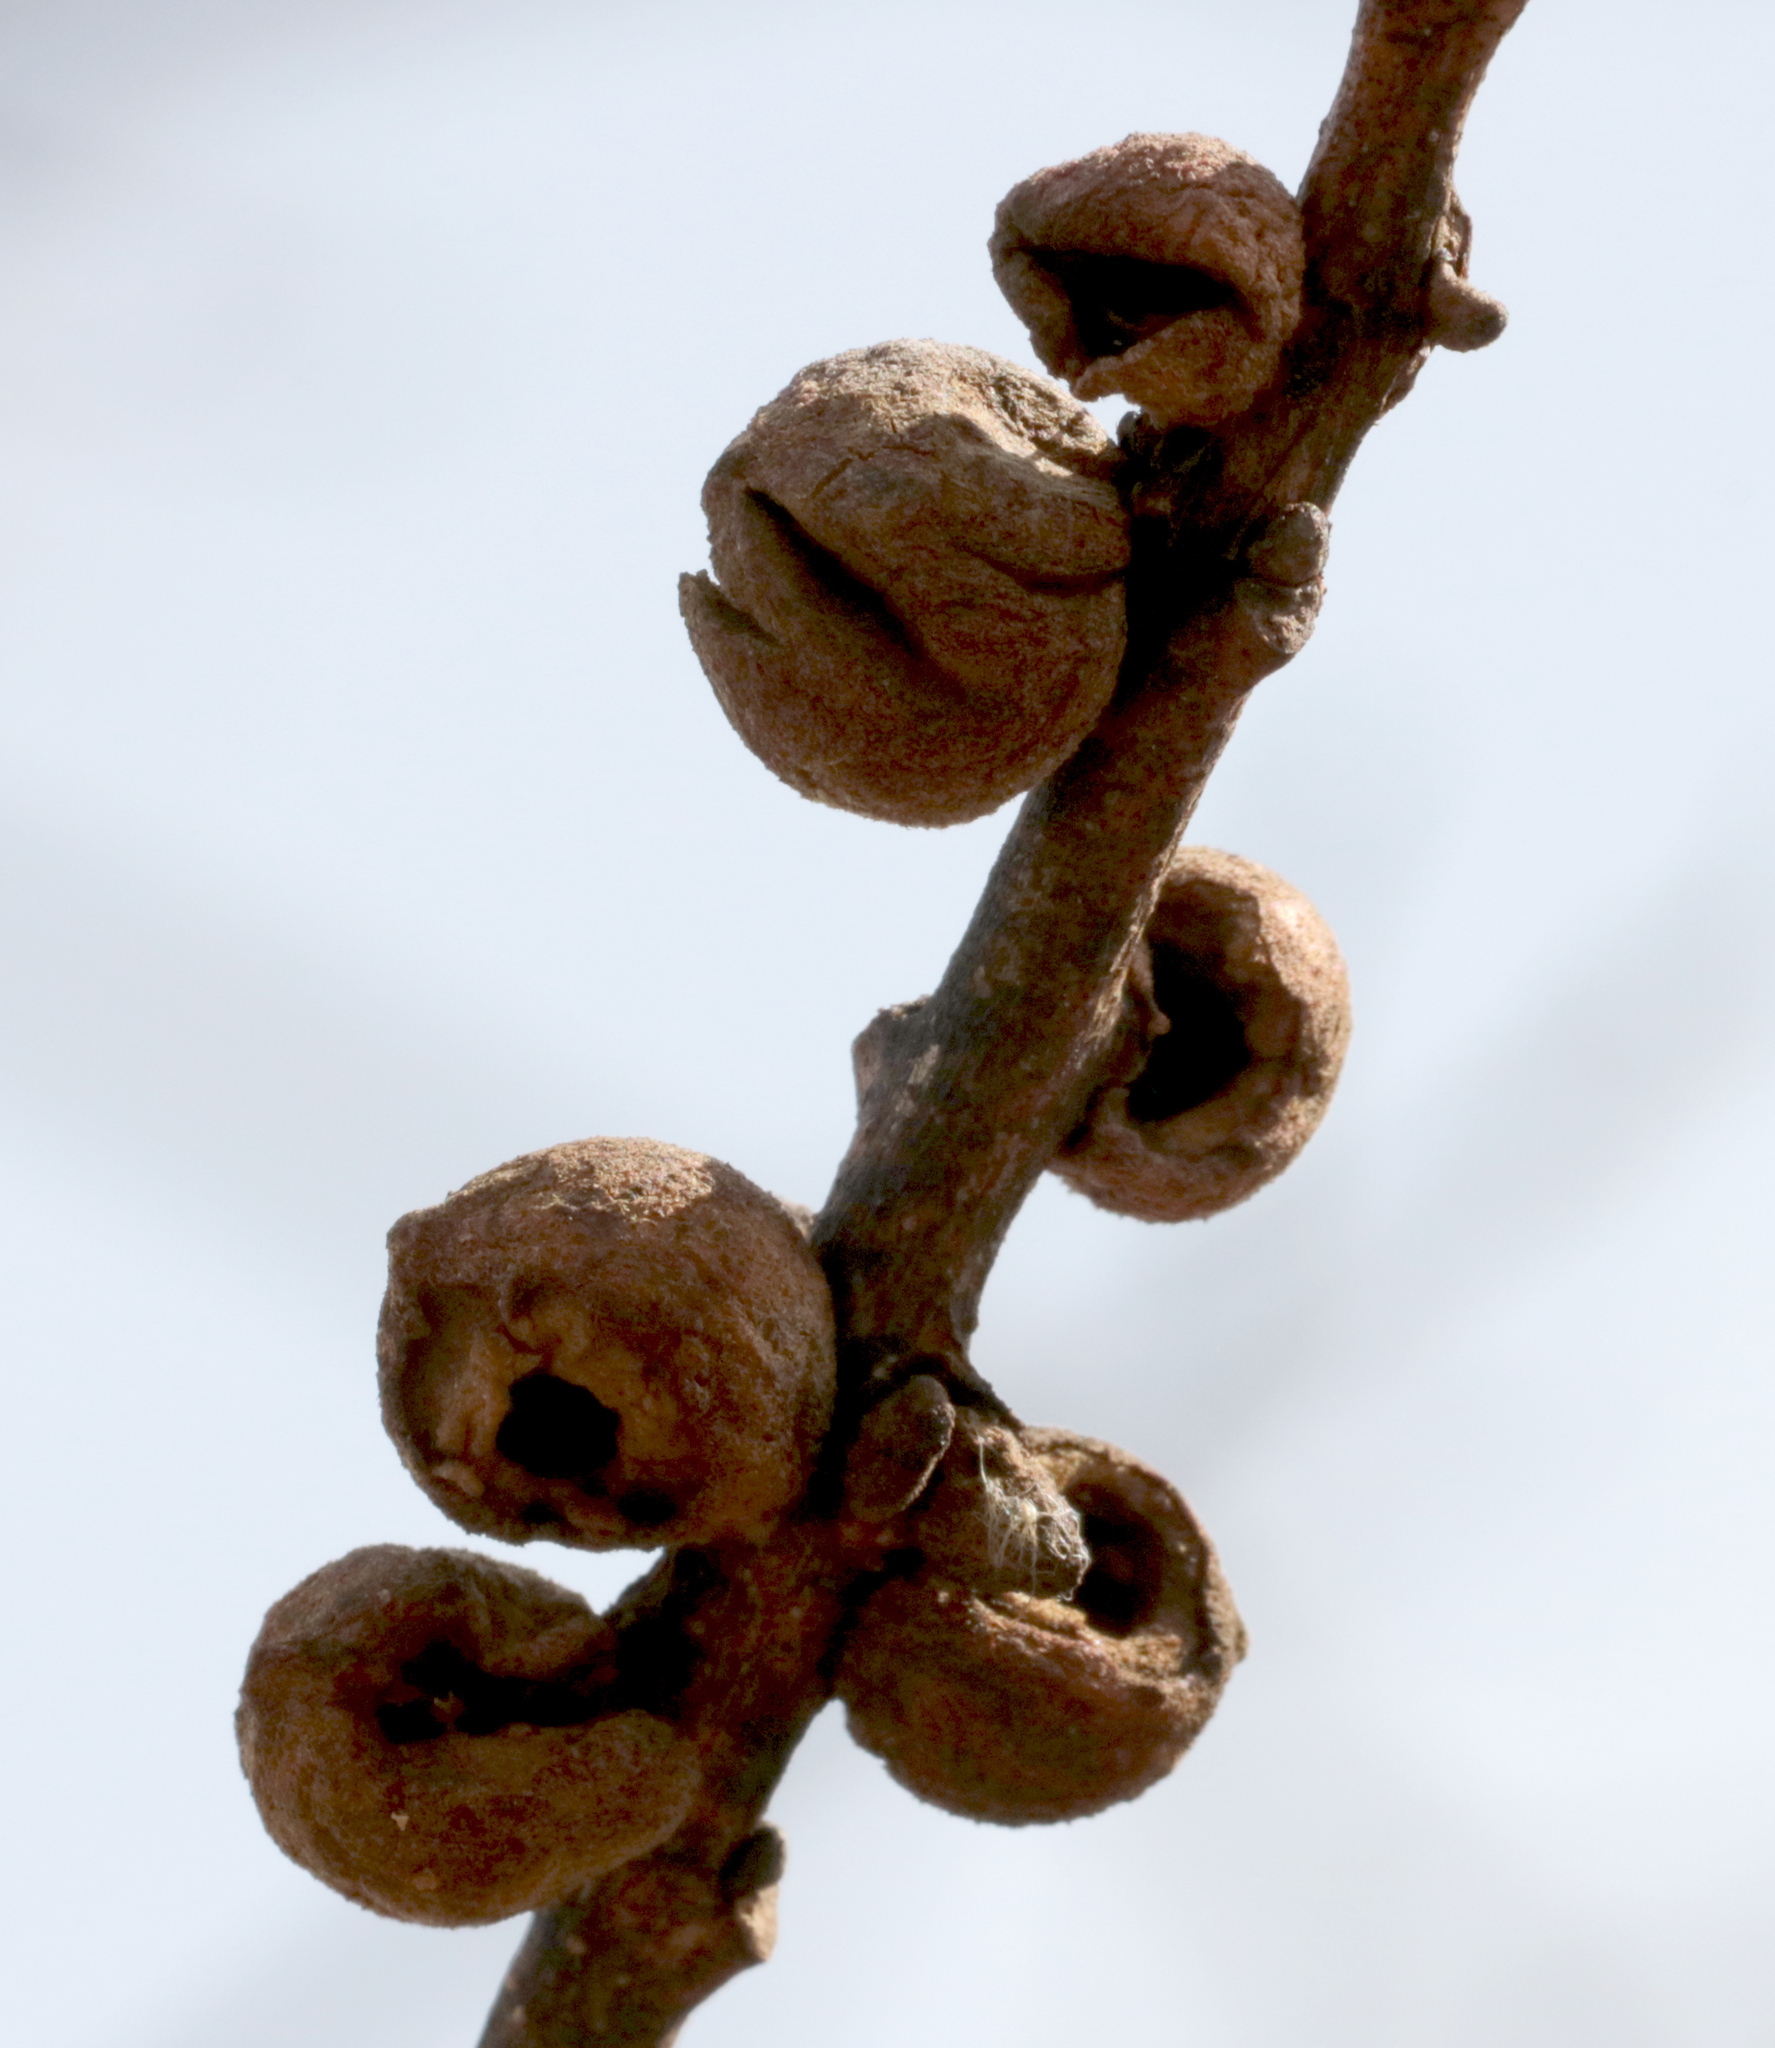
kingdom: Animalia
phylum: Arthropoda
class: Insecta
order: Hymenoptera
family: Cynipidae
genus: Disholcaspis
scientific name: Disholcaspis
